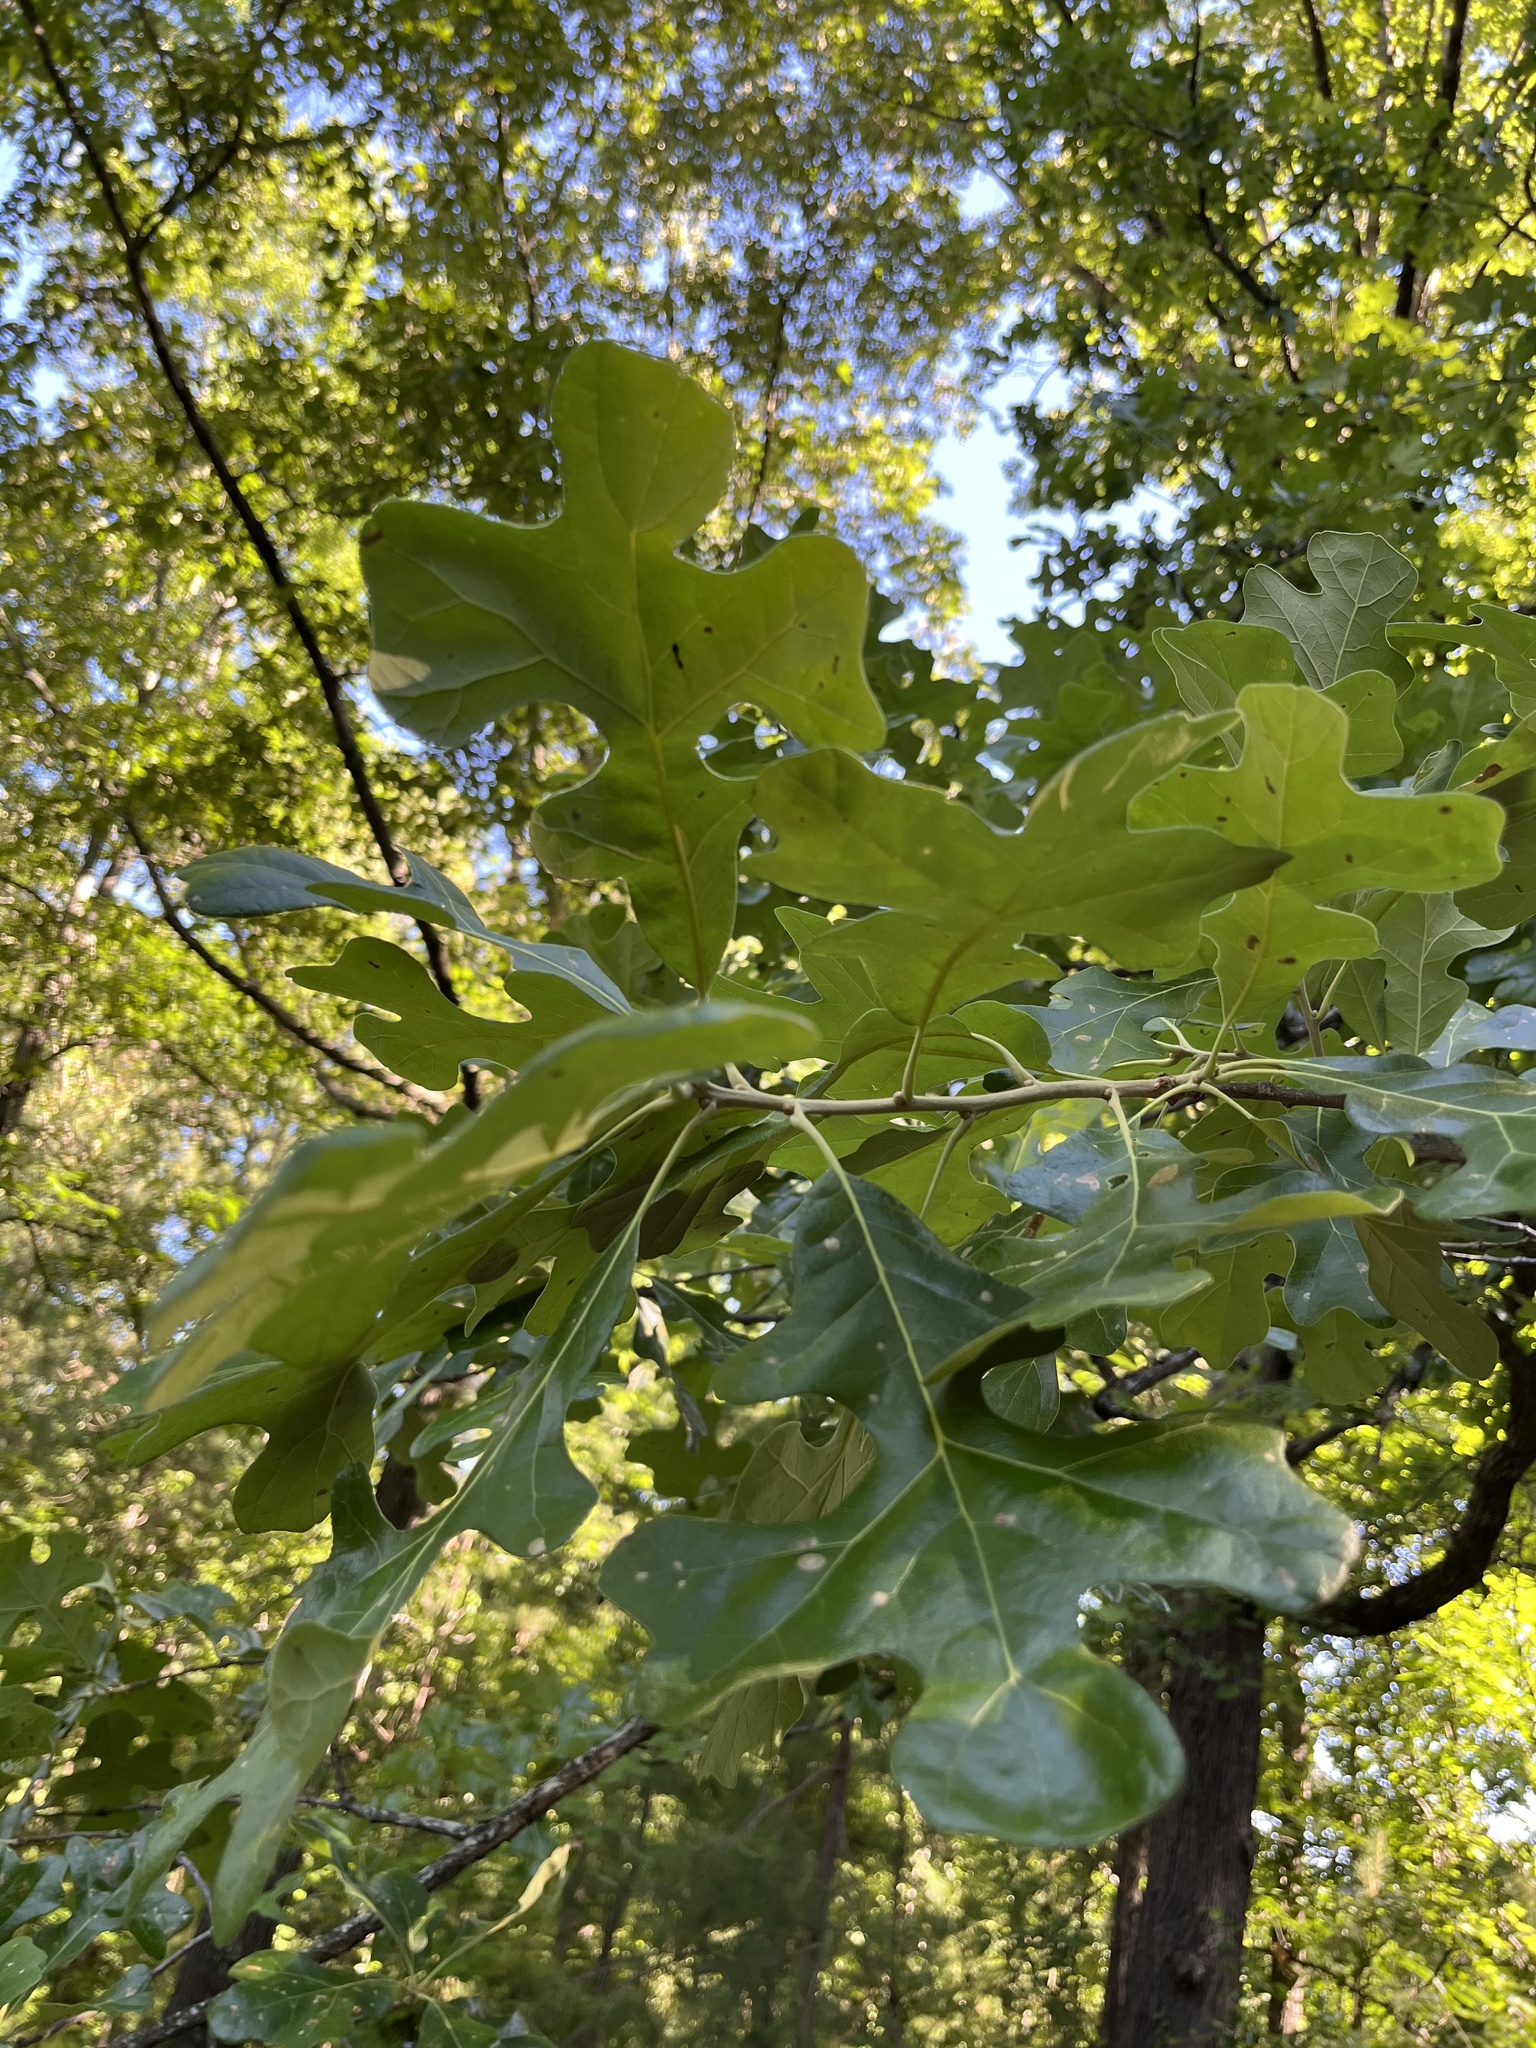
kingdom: Plantae
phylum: Tracheophyta
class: Magnoliopsida
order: Fagales
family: Fagaceae
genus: Quercus
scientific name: Quercus stellata
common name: Post oak
